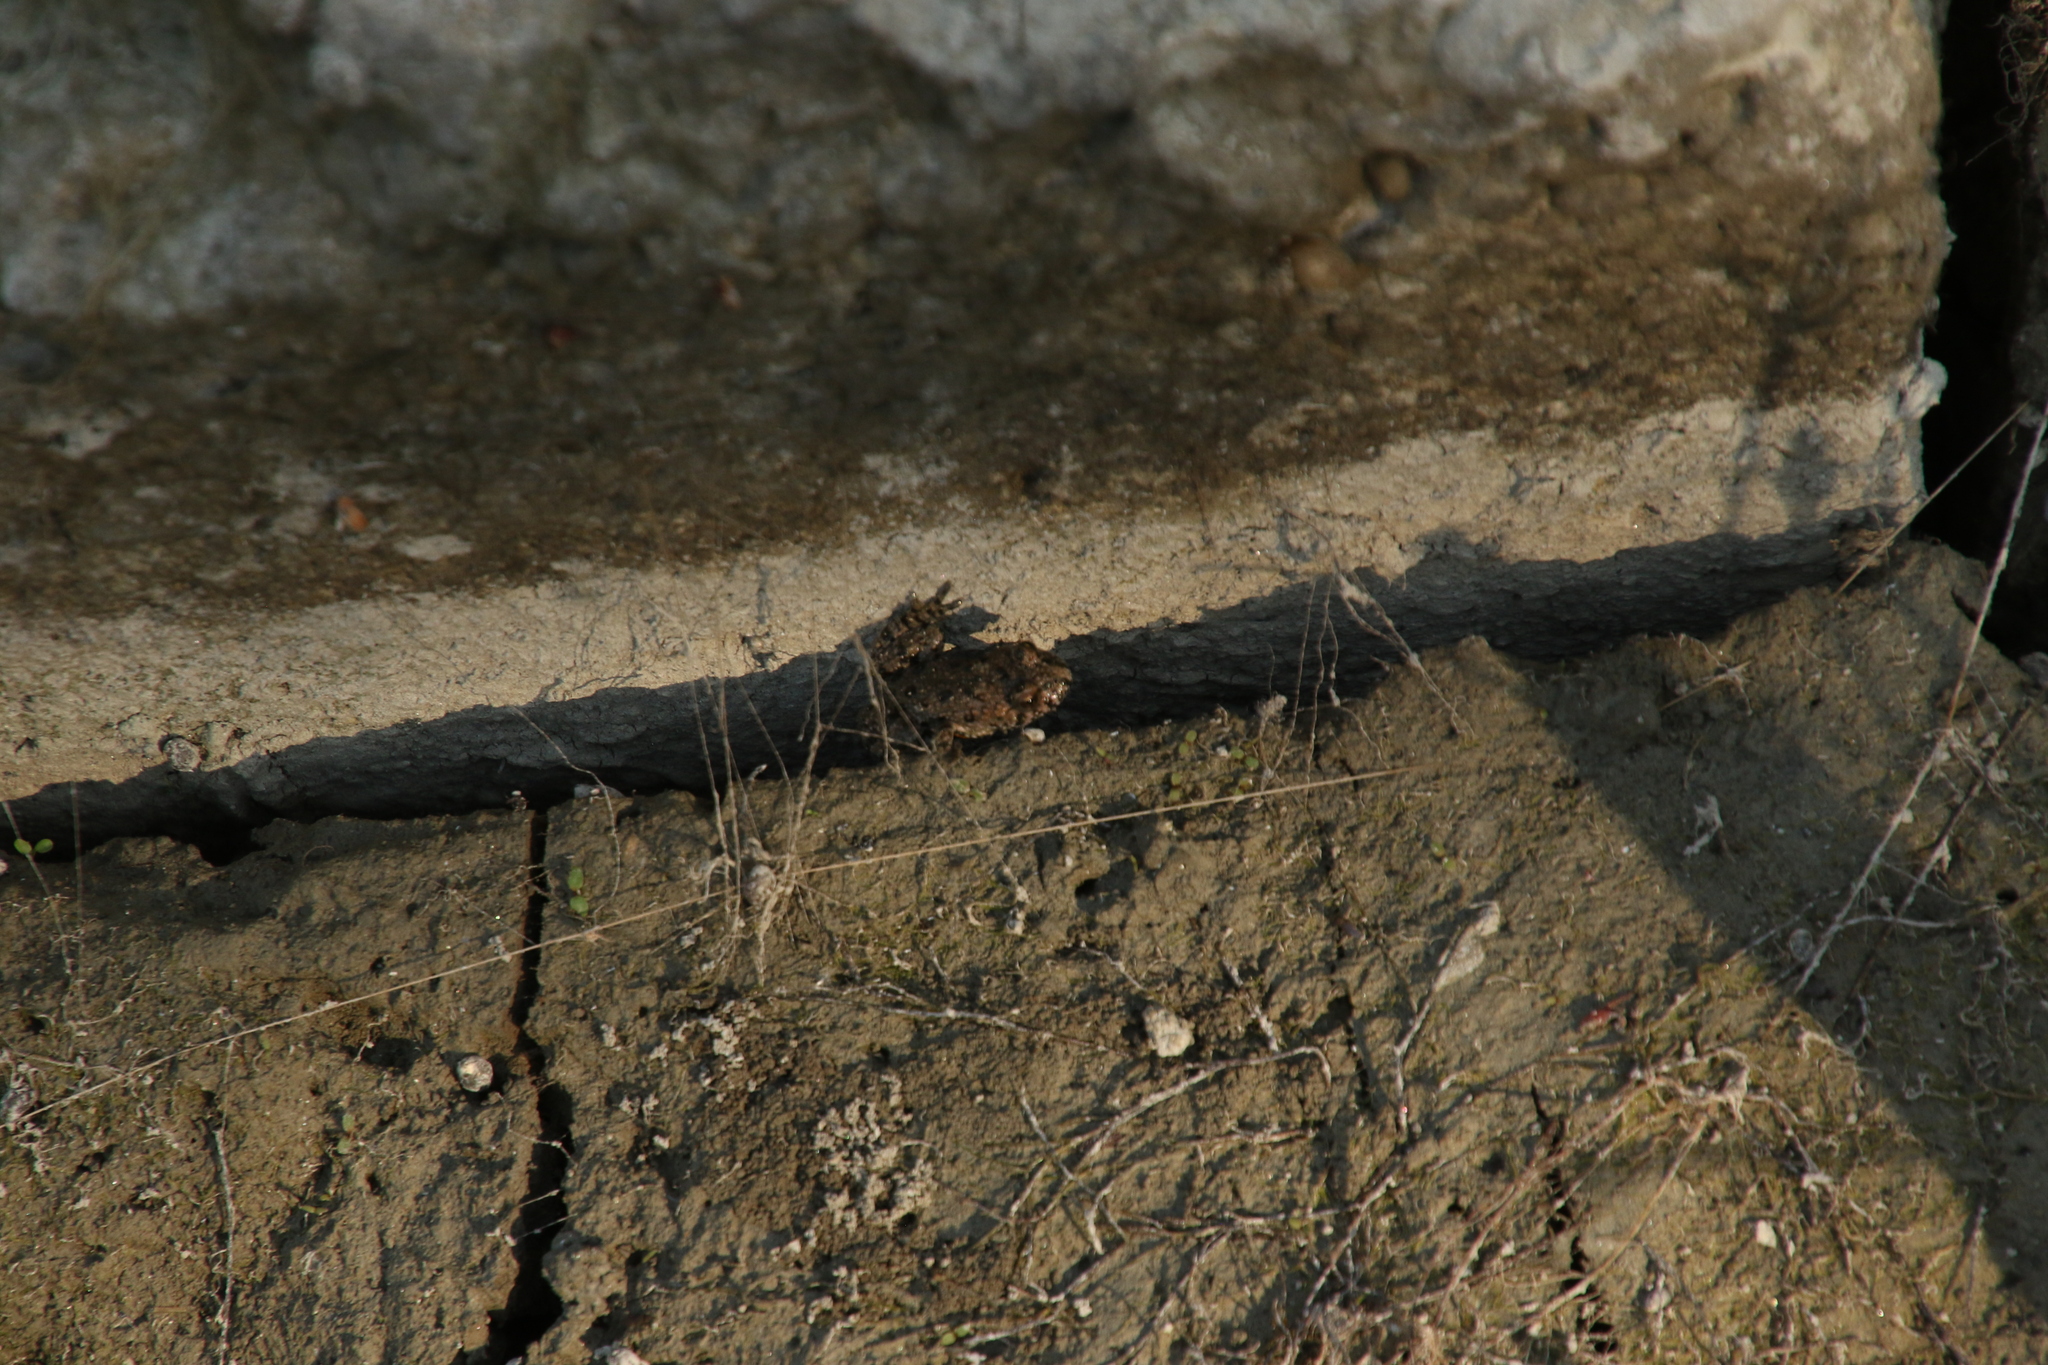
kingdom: Animalia
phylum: Chordata
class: Amphibia
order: Anura
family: Bombinatoridae
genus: Bombina
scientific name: Bombina bombina
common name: Fire-bellied toad
